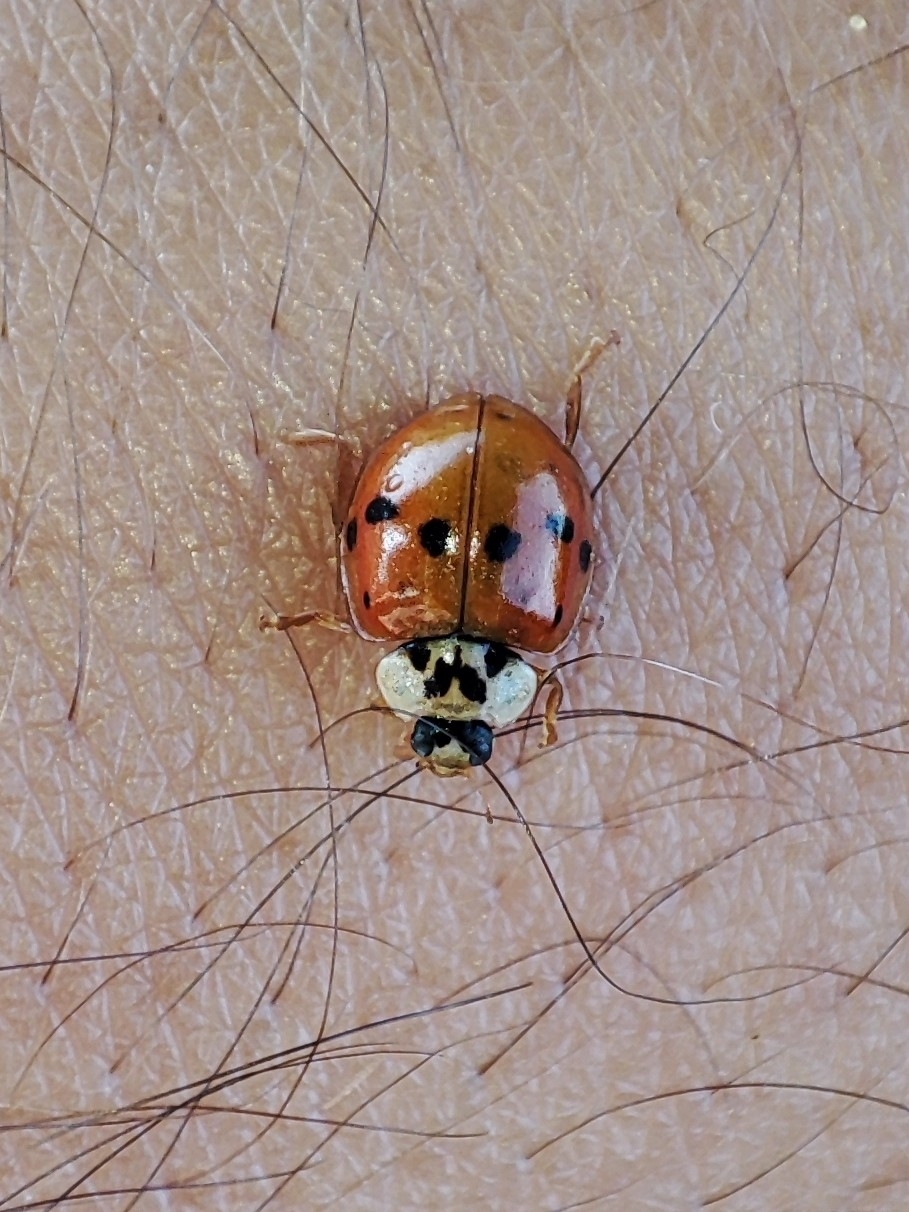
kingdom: Animalia
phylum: Arthropoda
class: Insecta
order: Coleoptera
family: Coccinellidae
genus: Adalia
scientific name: Adalia decempunctata
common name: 10-spot ladybird
